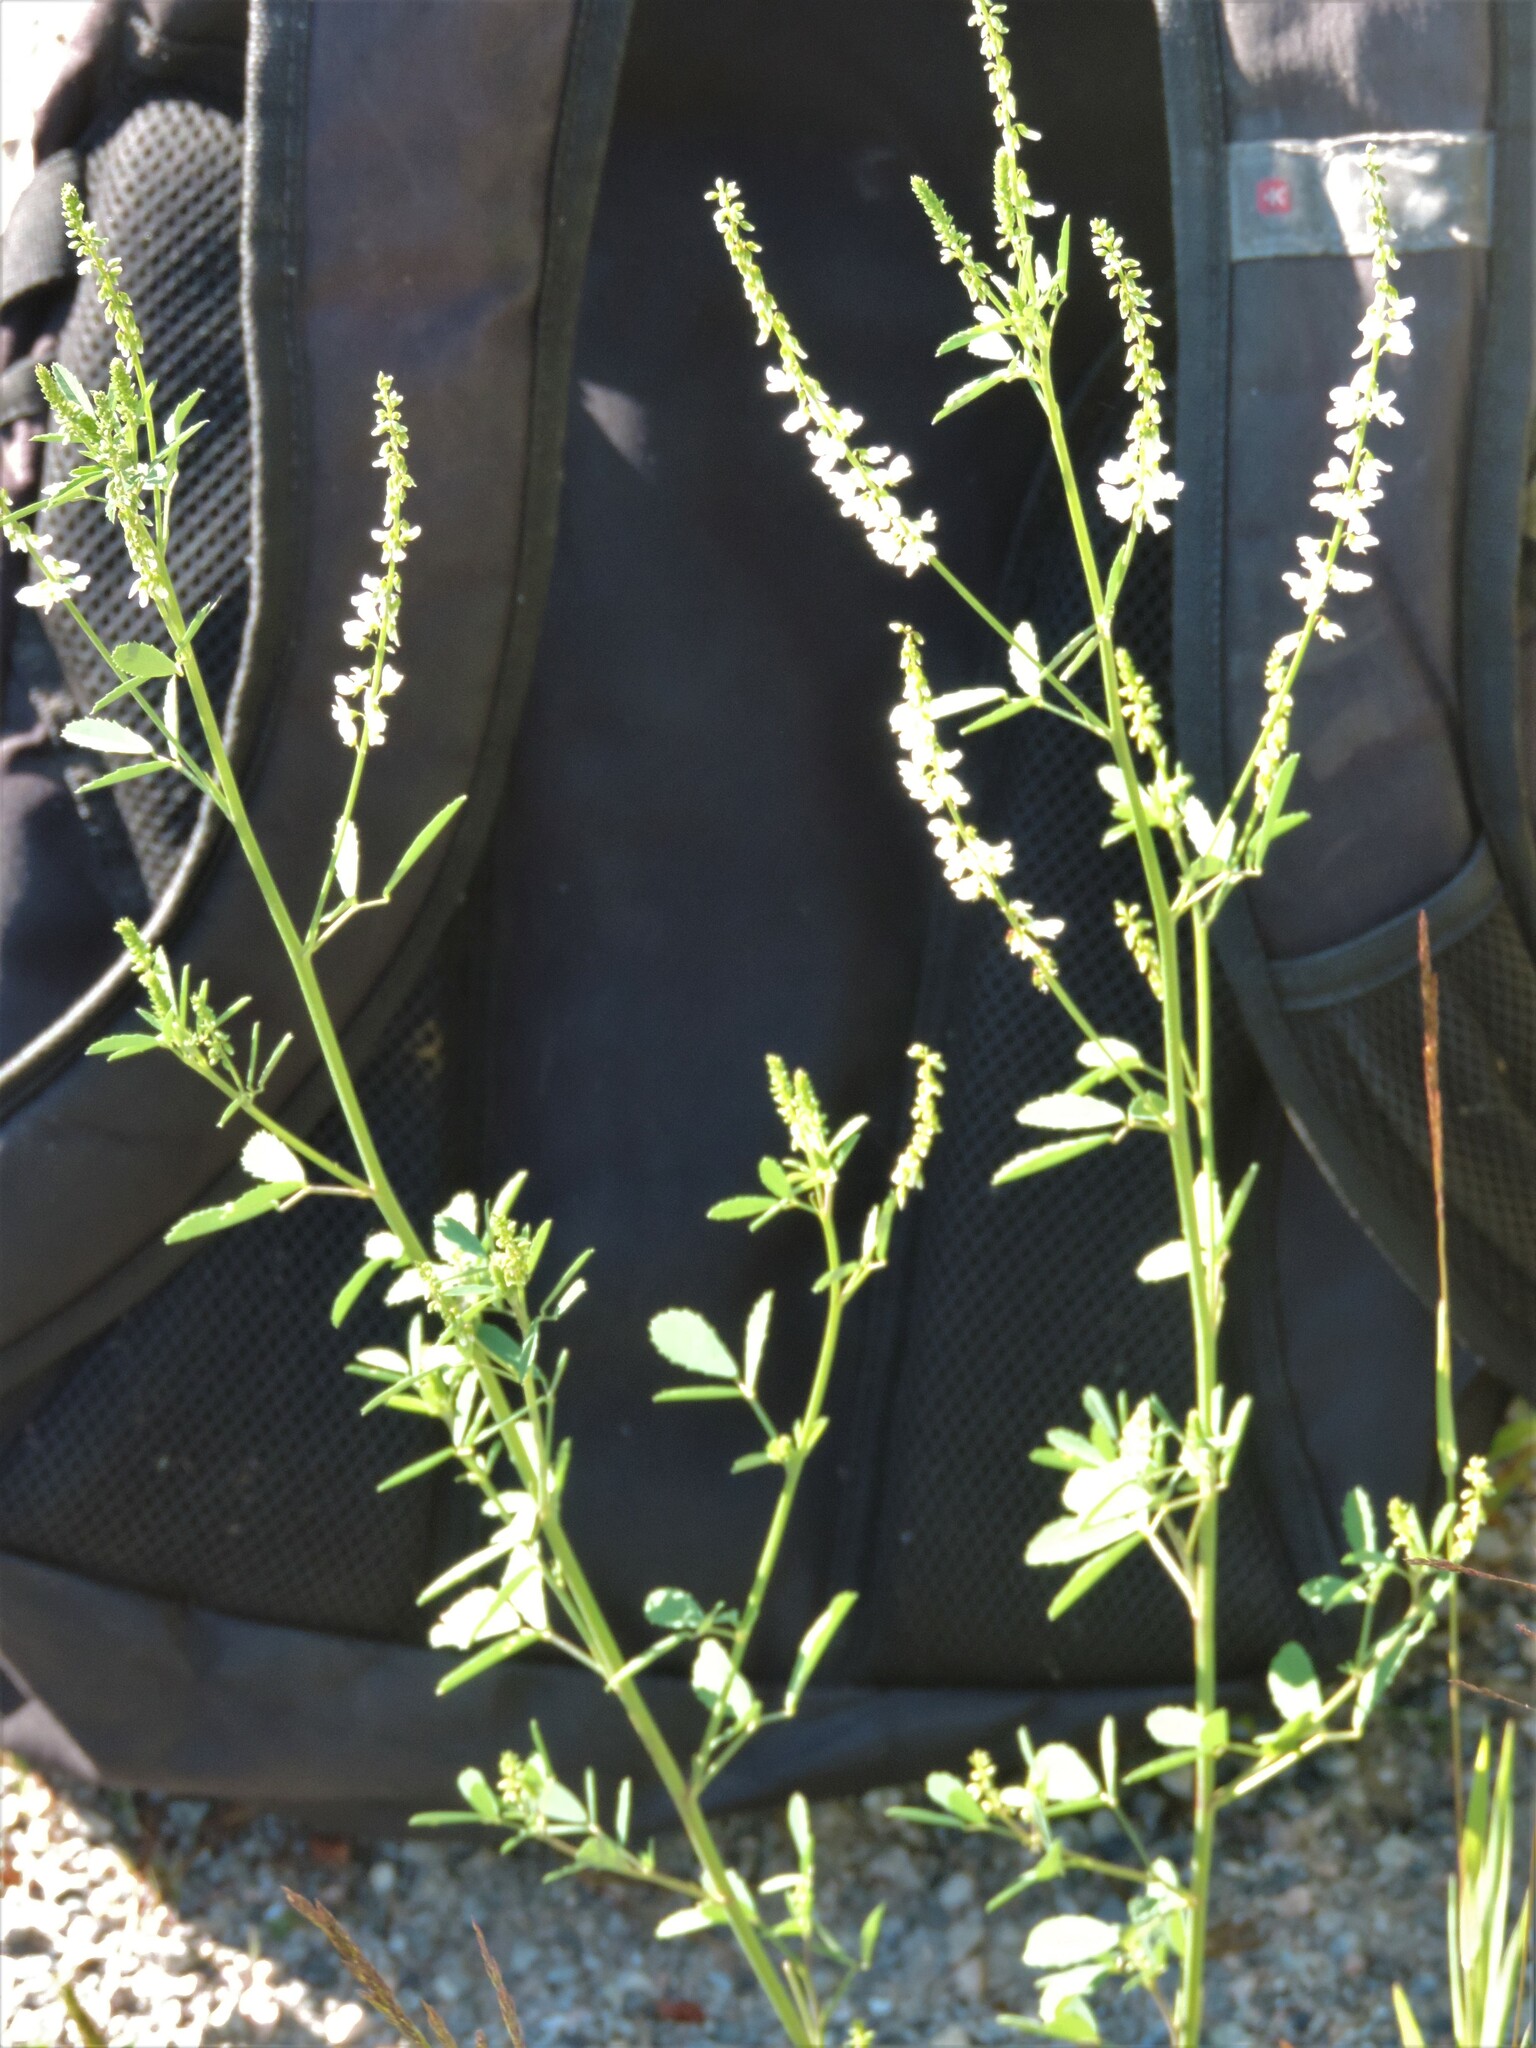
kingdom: Plantae
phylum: Tracheophyta
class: Magnoliopsida
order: Fabales
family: Fabaceae
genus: Melilotus
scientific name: Melilotus albus
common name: White melilot
